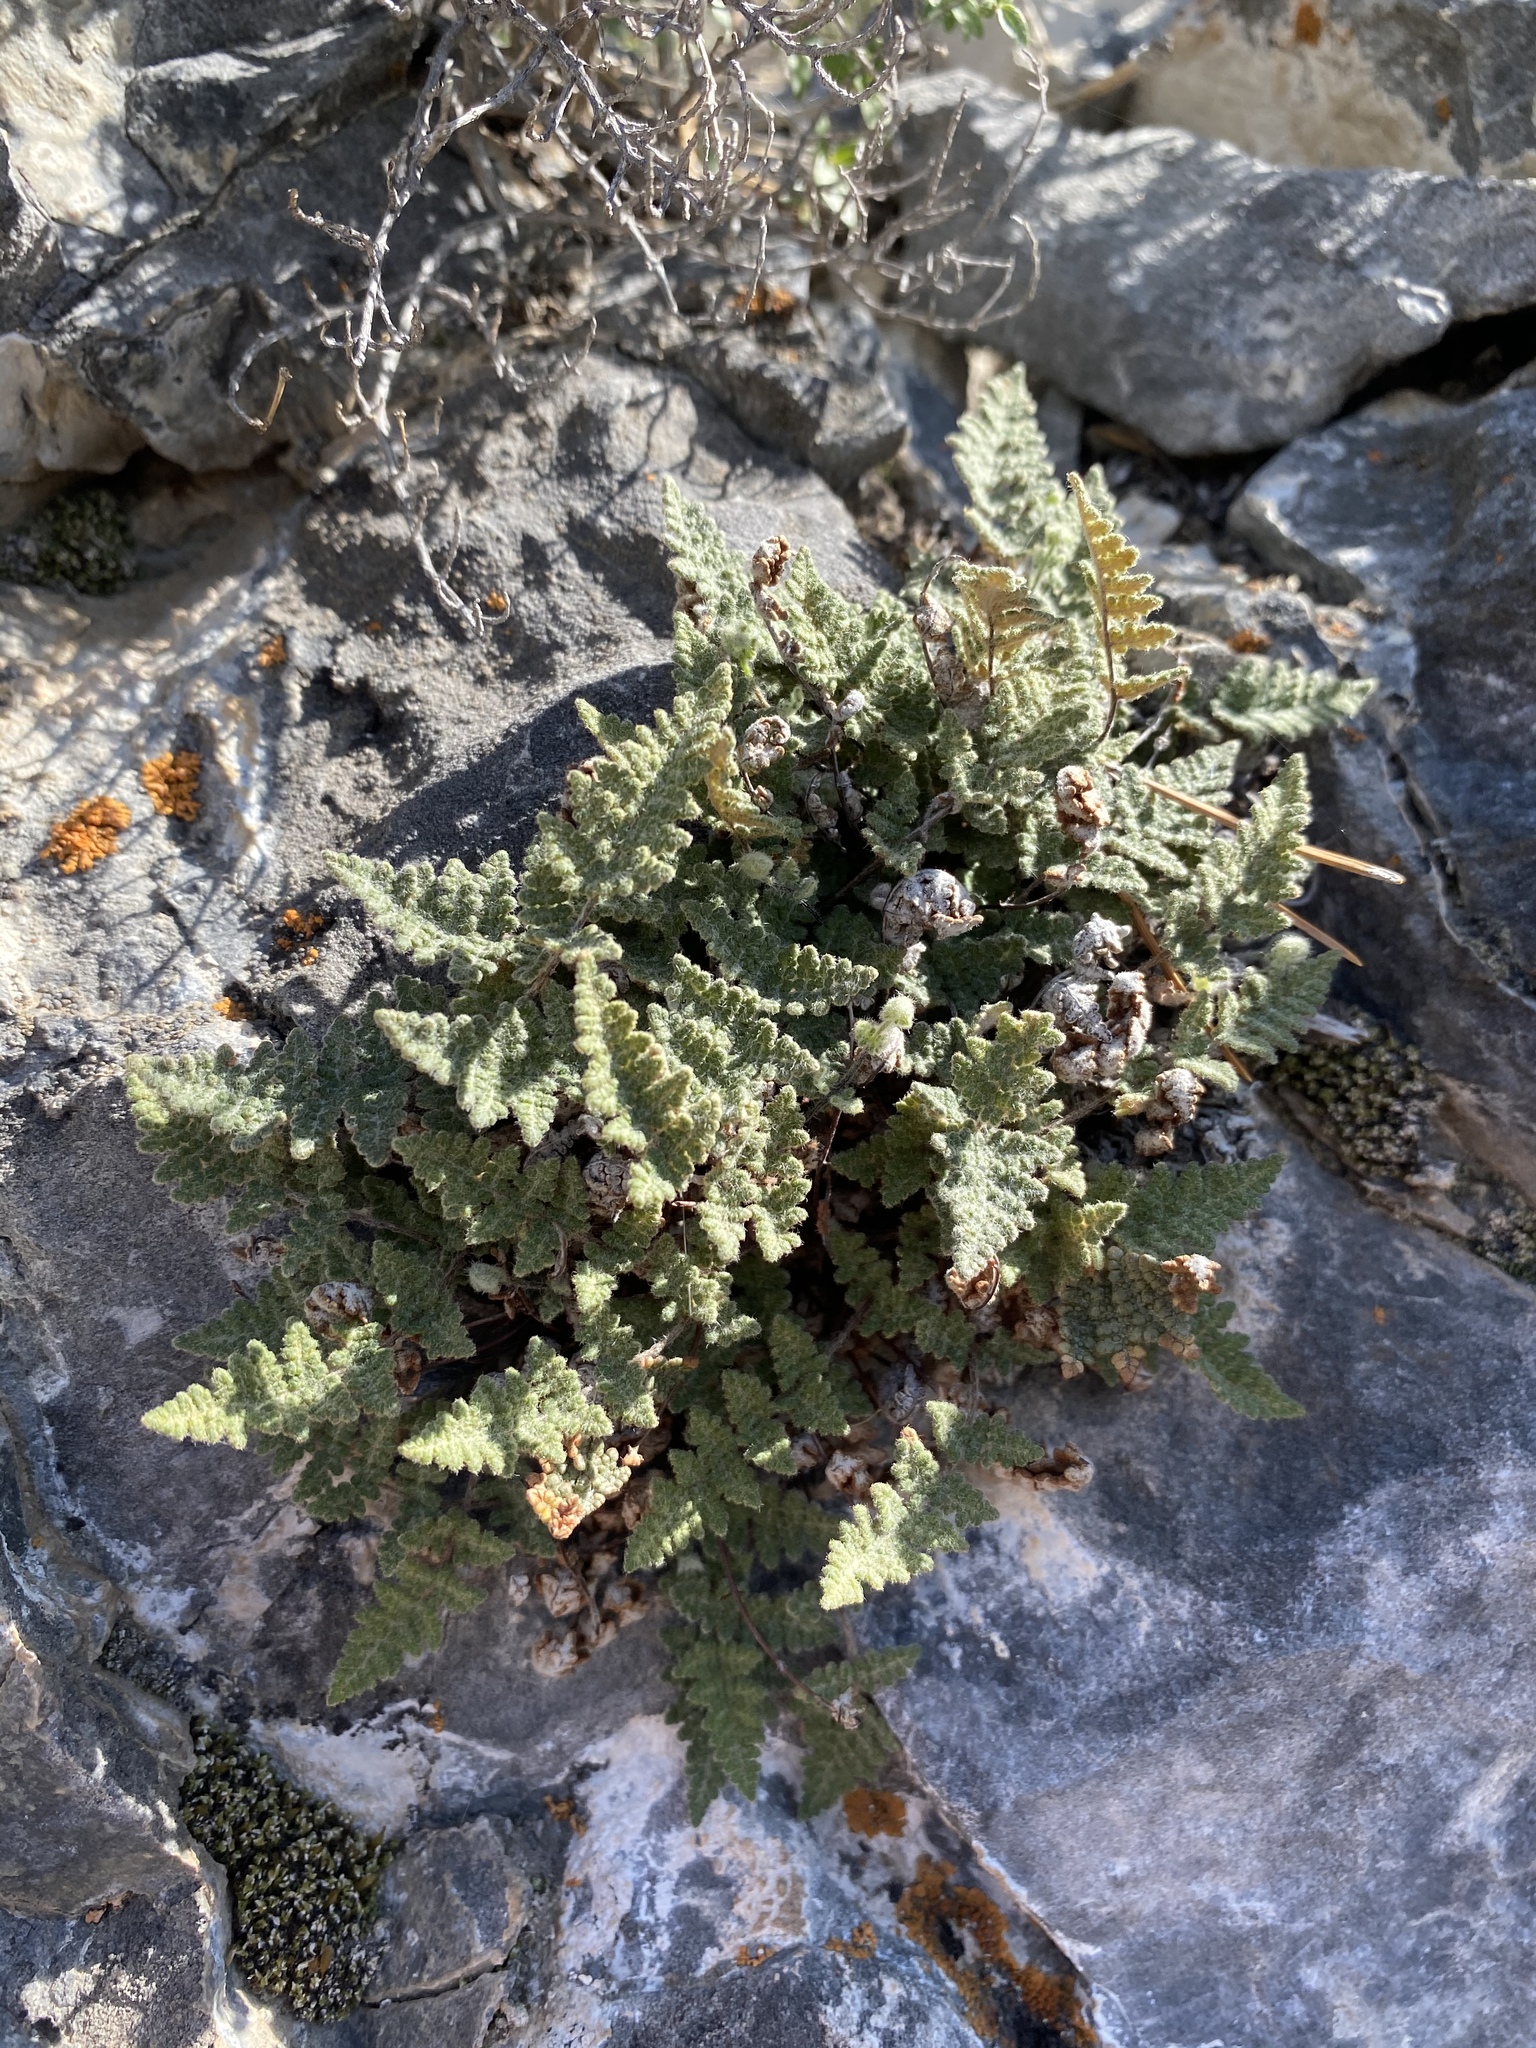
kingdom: Plantae
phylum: Tracheophyta
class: Polypodiopsida
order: Polypodiales
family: Pteridaceae
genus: Myriopteris
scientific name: Myriopteris gracilis
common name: Fee's lip fern
